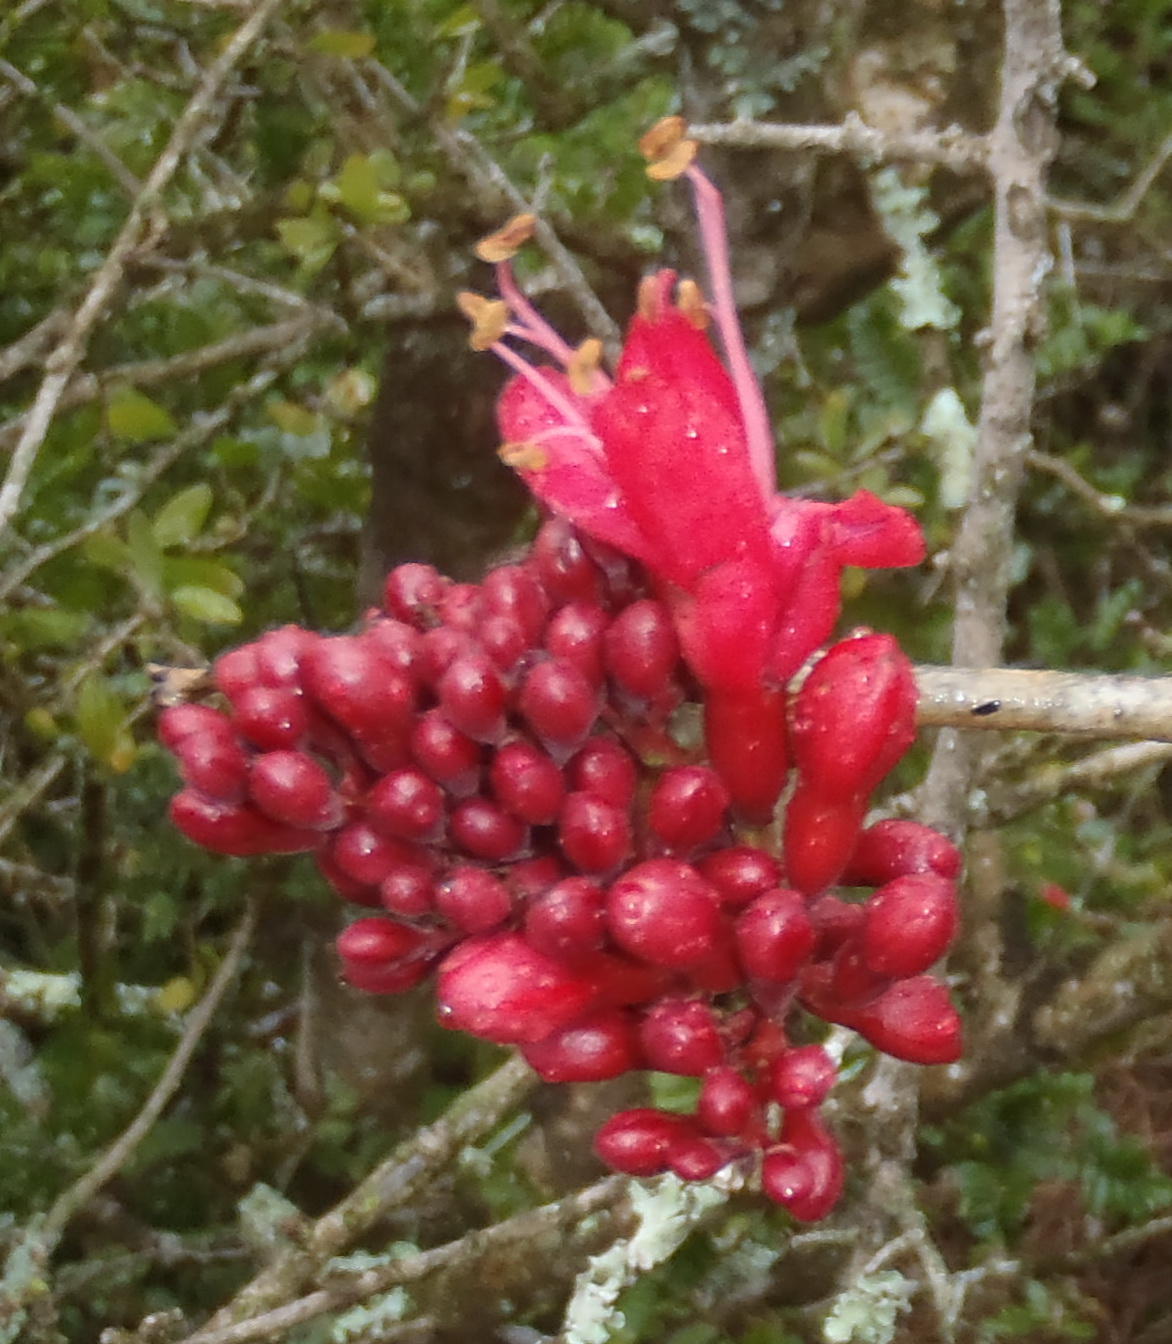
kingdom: Plantae
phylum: Tracheophyta
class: Magnoliopsida
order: Fabales
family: Fabaceae
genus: Schotia
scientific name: Schotia afra
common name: Hottentot's bean
